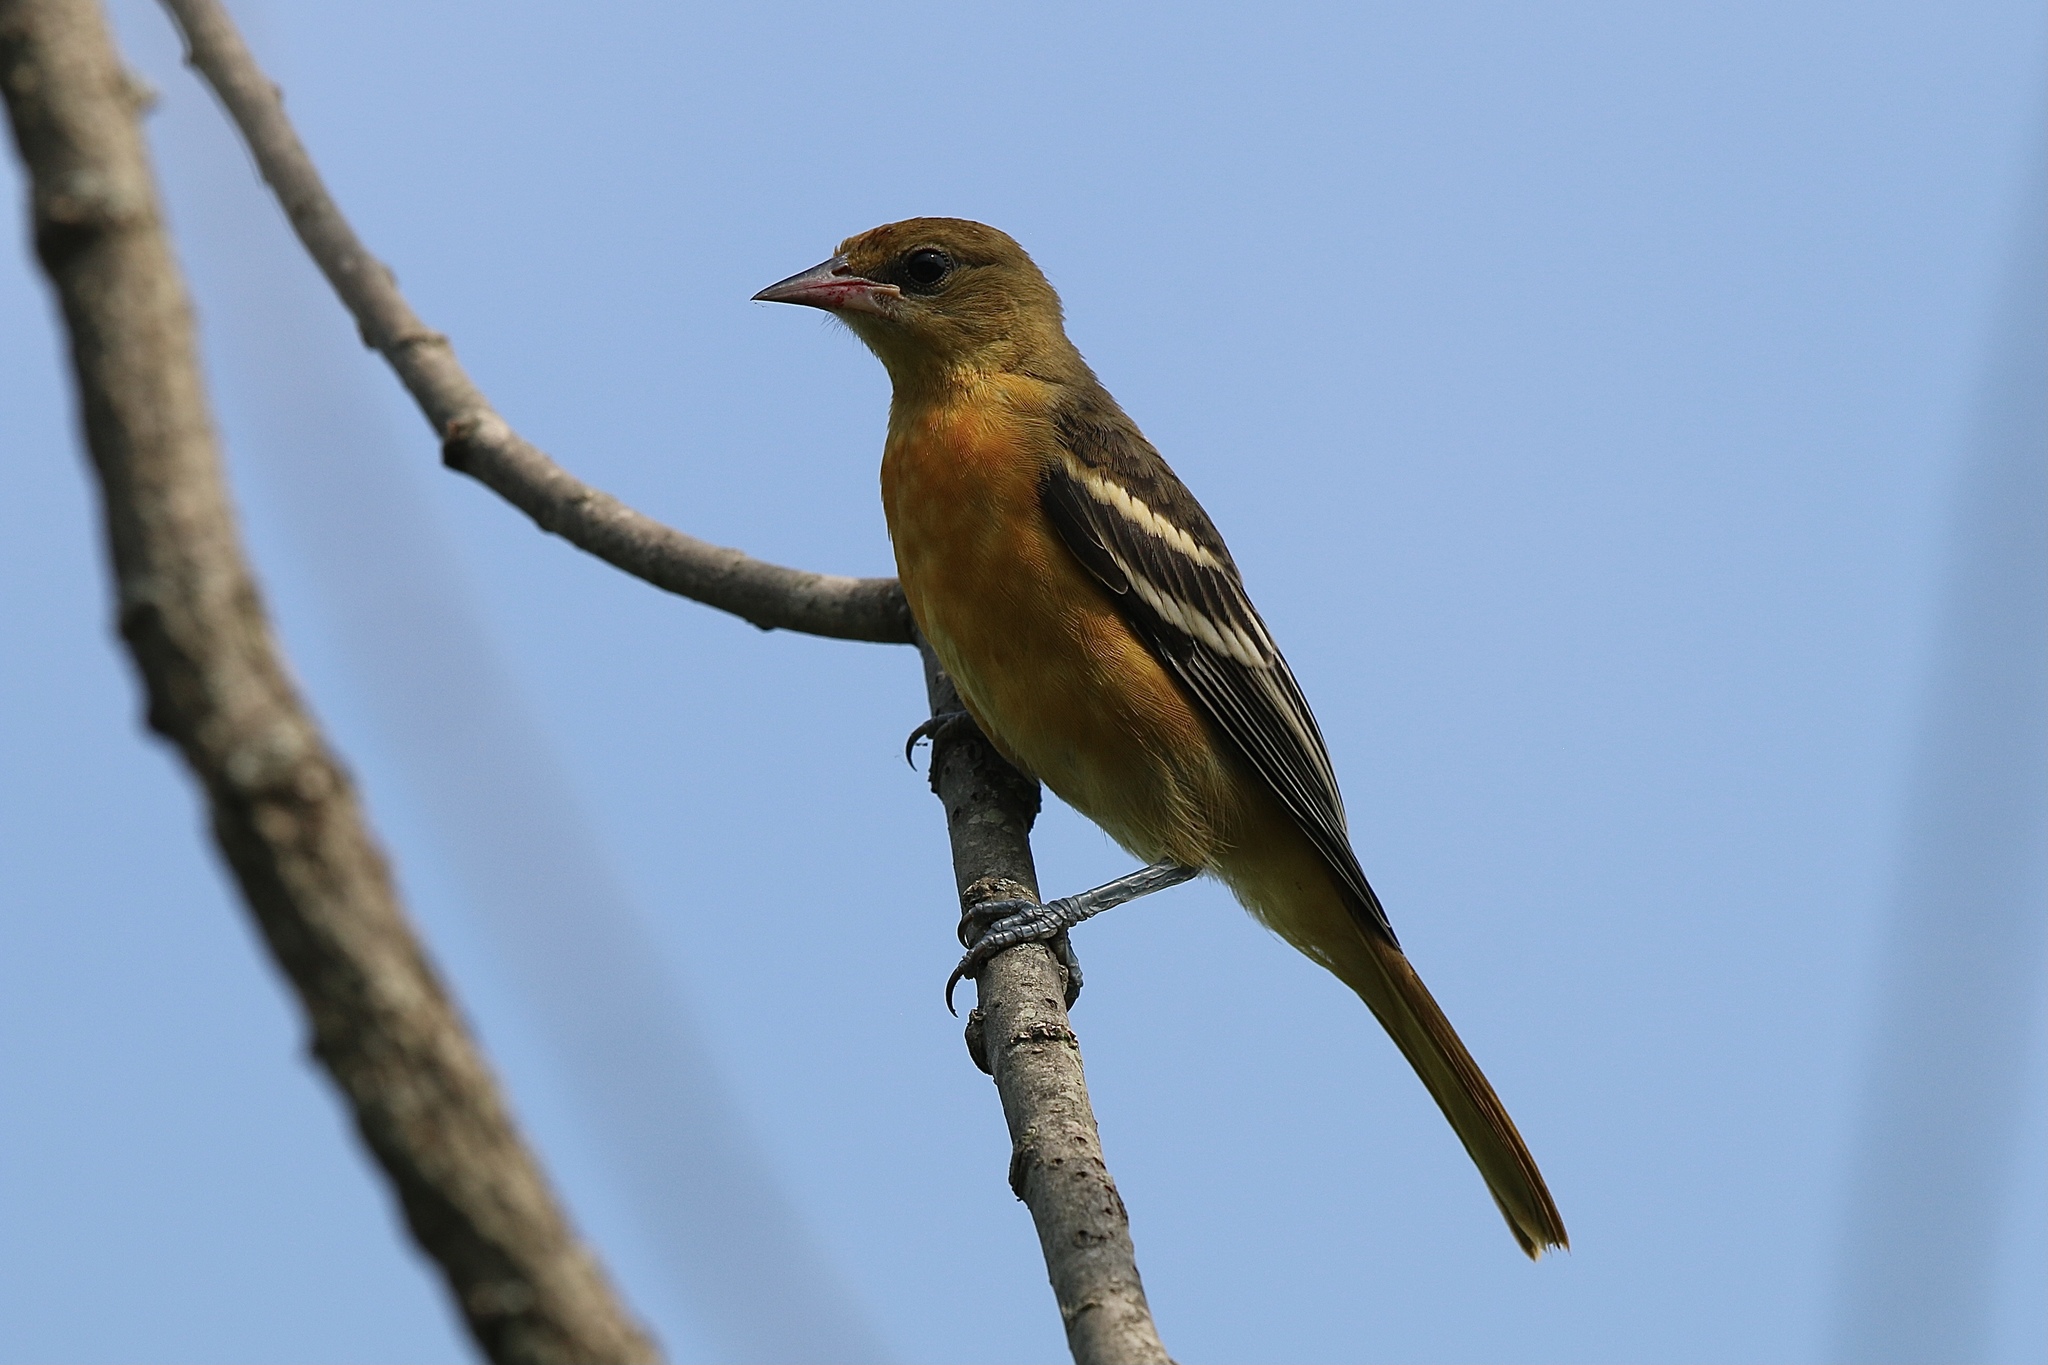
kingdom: Animalia
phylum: Chordata
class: Aves
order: Passeriformes
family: Icteridae
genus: Icterus
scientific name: Icterus galbula
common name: Baltimore oriole
